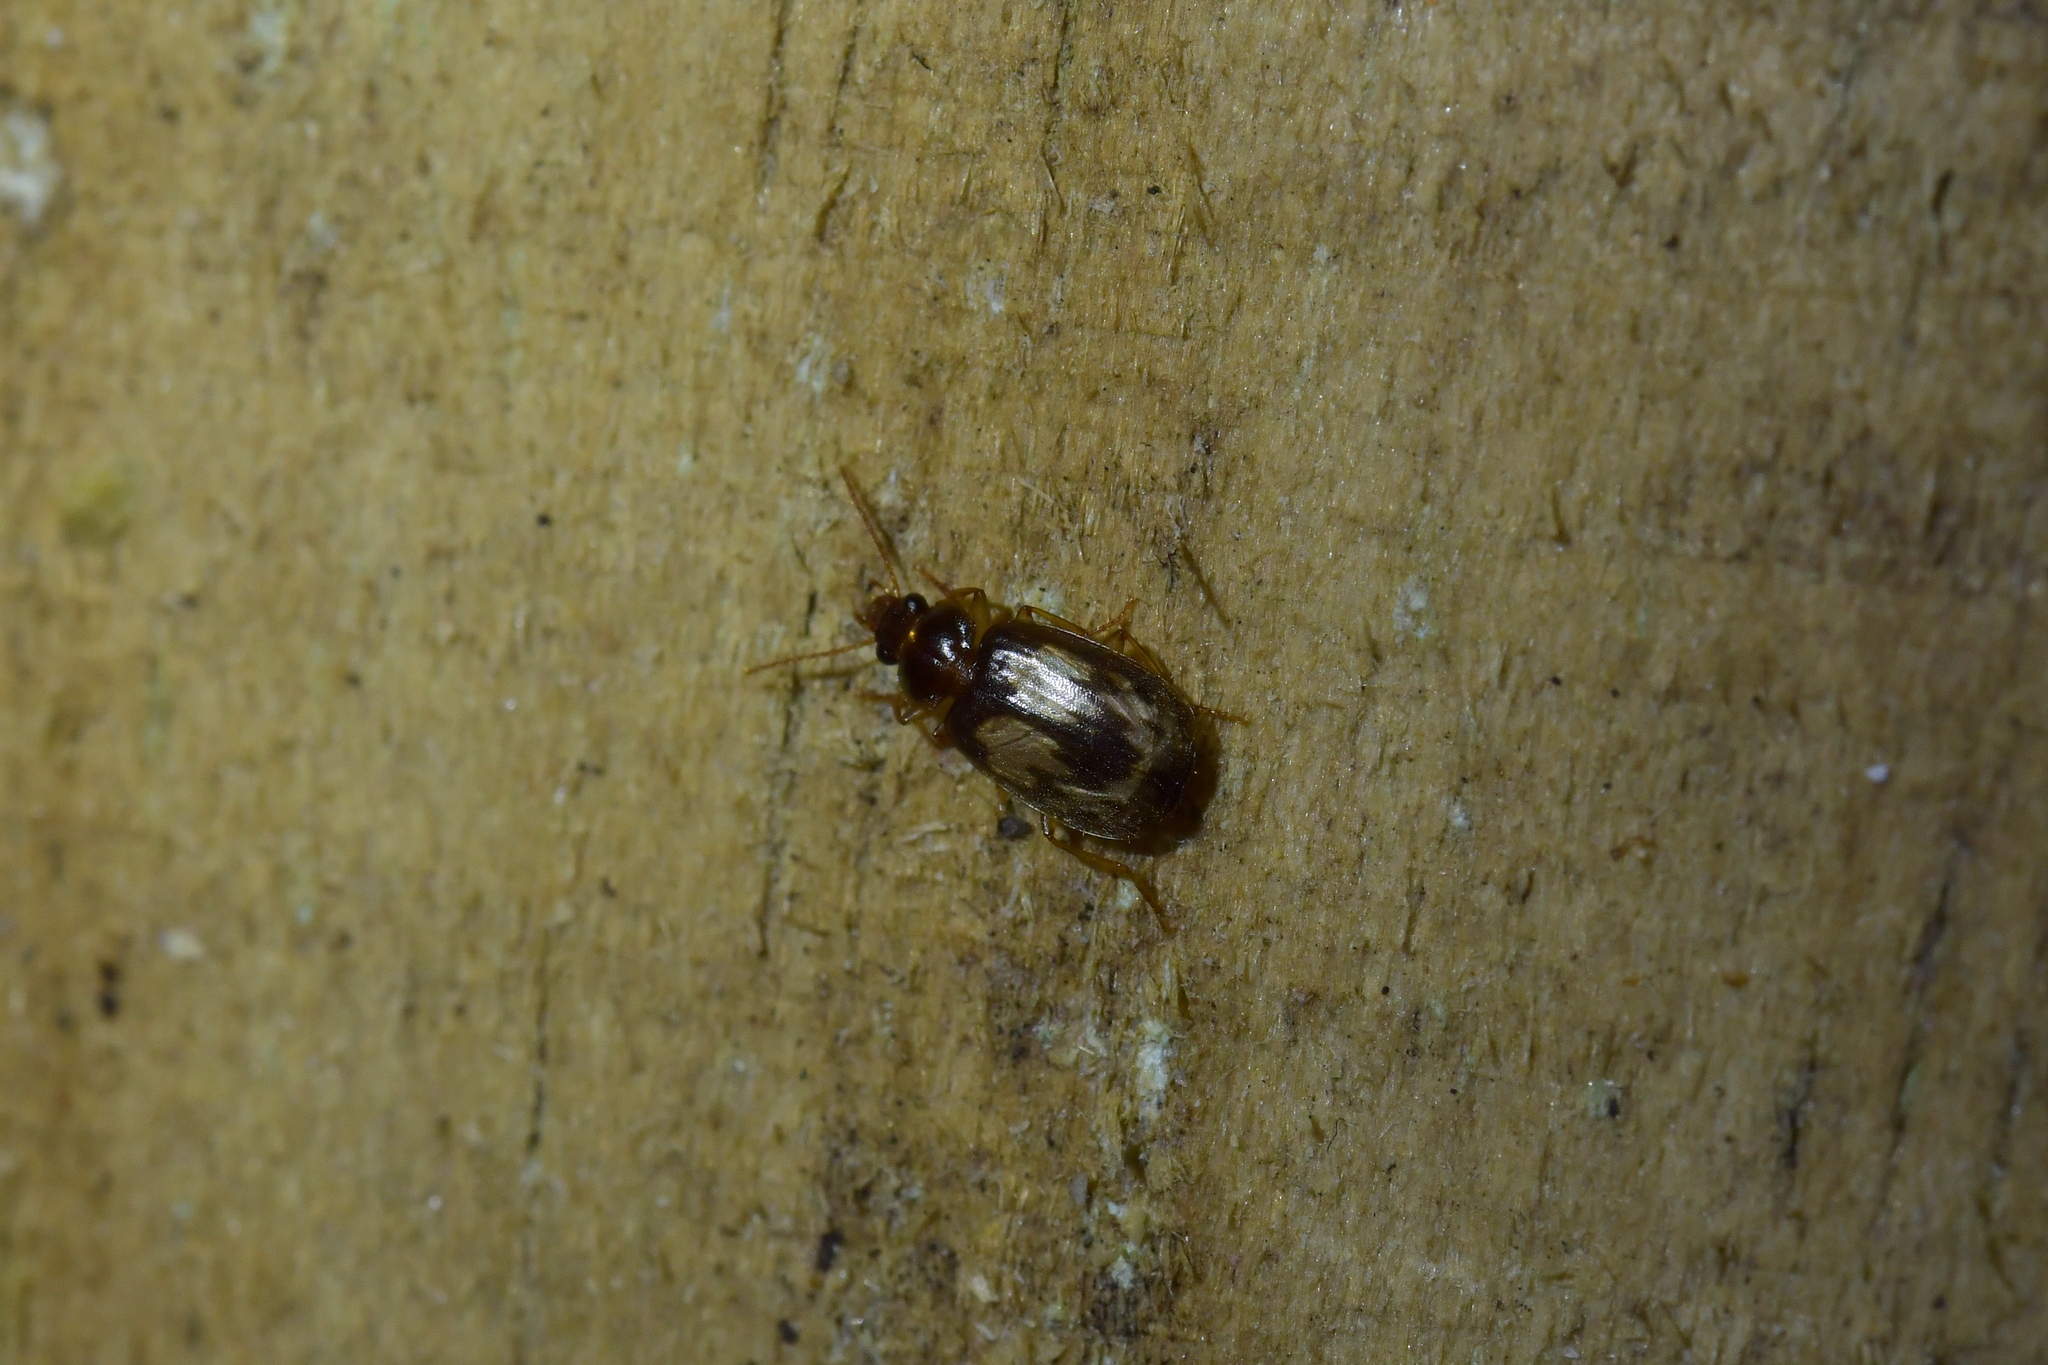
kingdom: Animalia
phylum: Arthropoda
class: Insecta
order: Coleoptera
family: Carabidae
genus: Philophlaeus
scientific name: Philophlaeus luculentus
